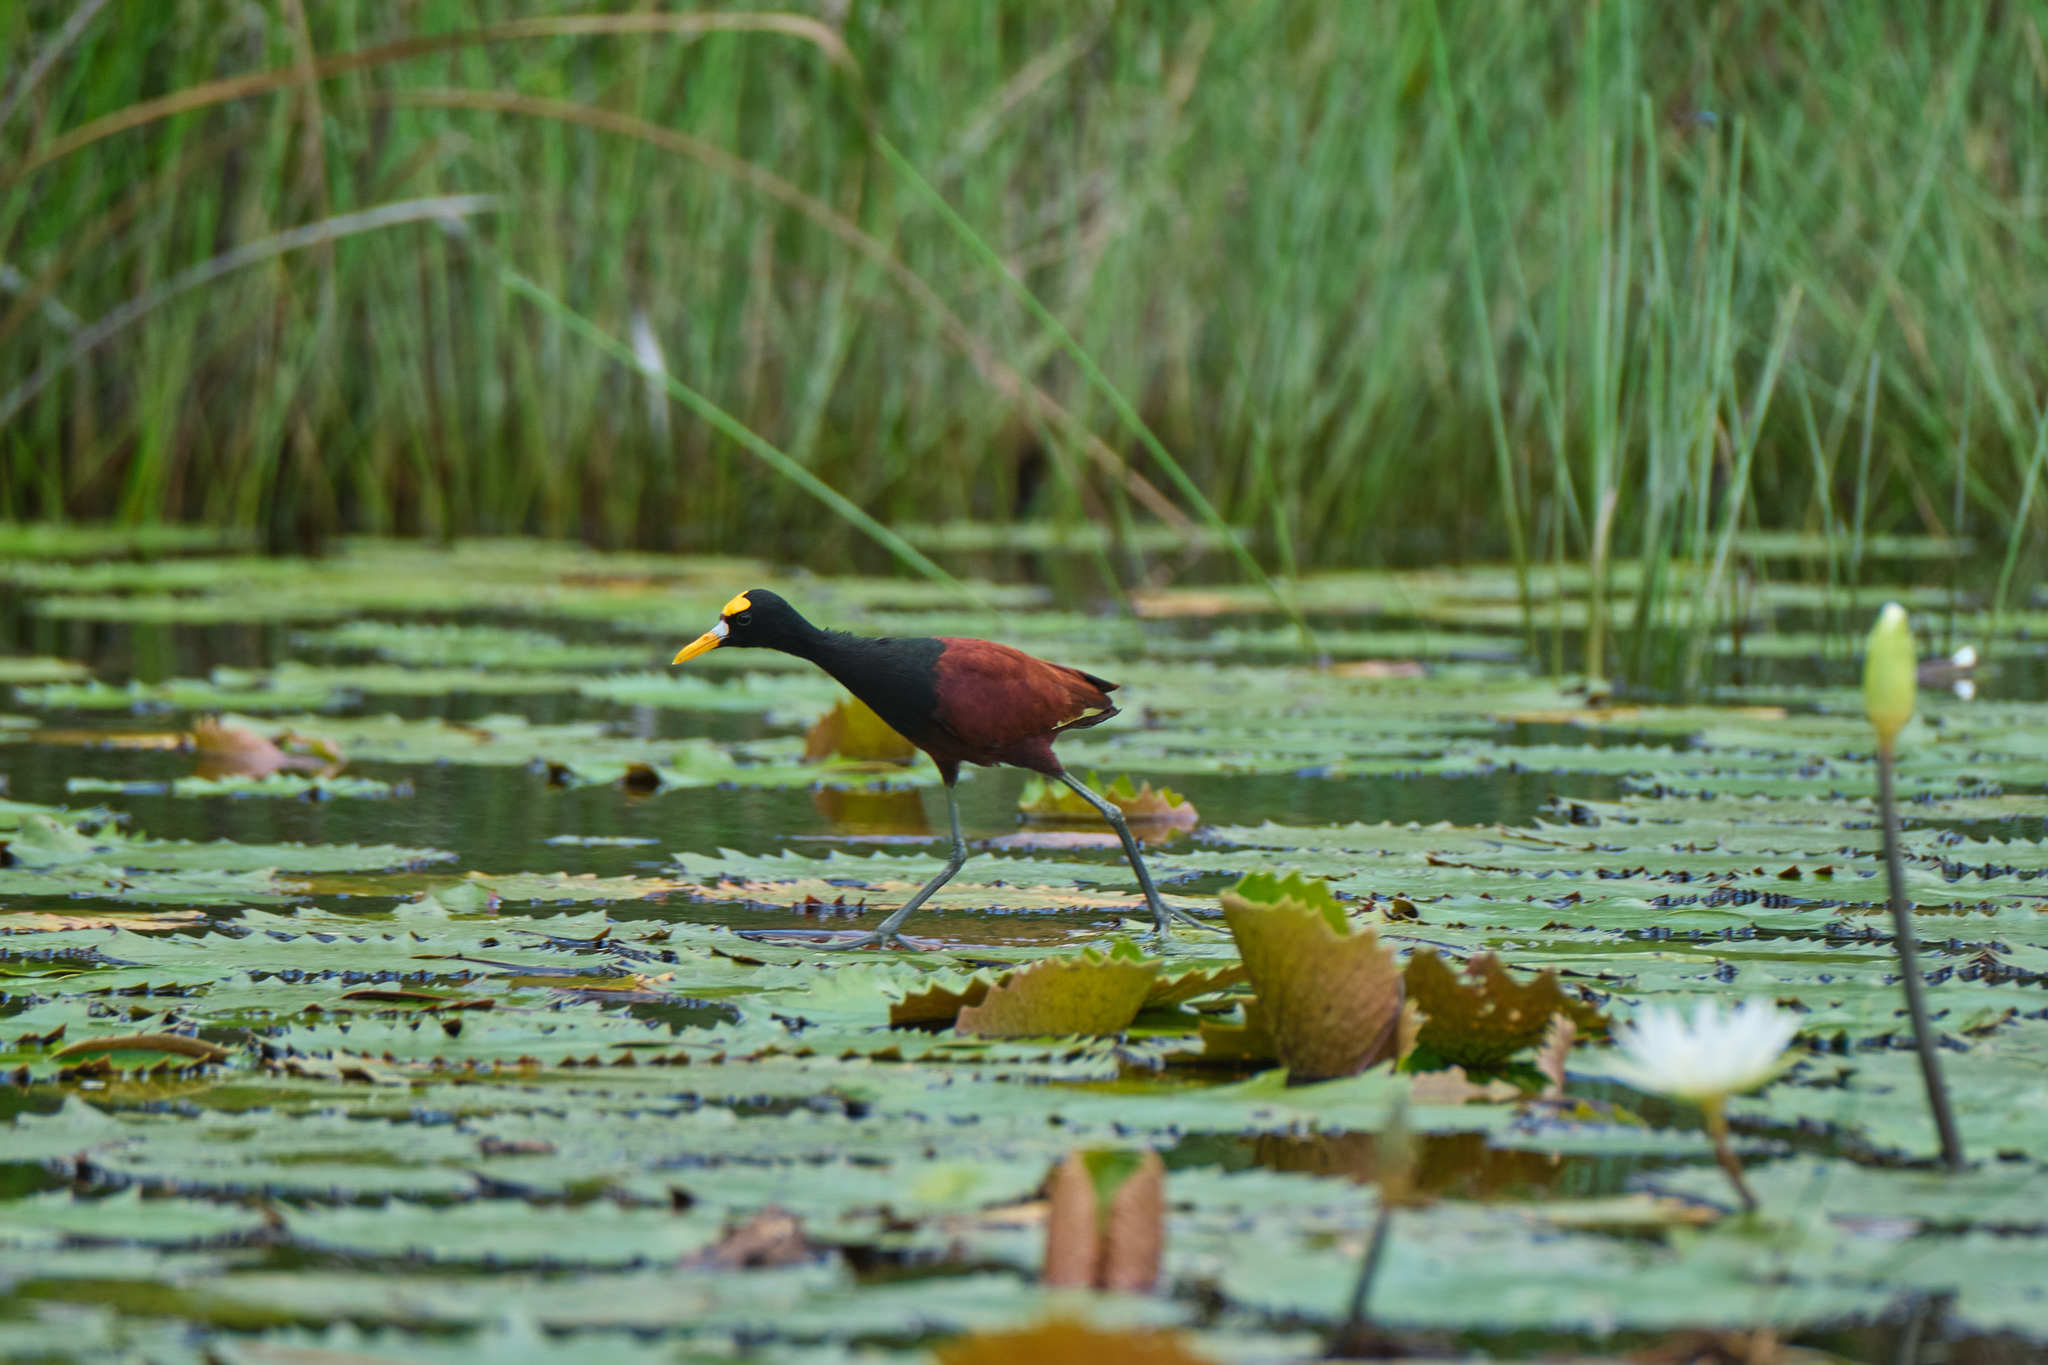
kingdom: Animalia
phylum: Chordata
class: Aves
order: Charadriiformes
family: Jacanidae
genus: Jacana
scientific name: Jacana spinosa
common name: Northern jacana
